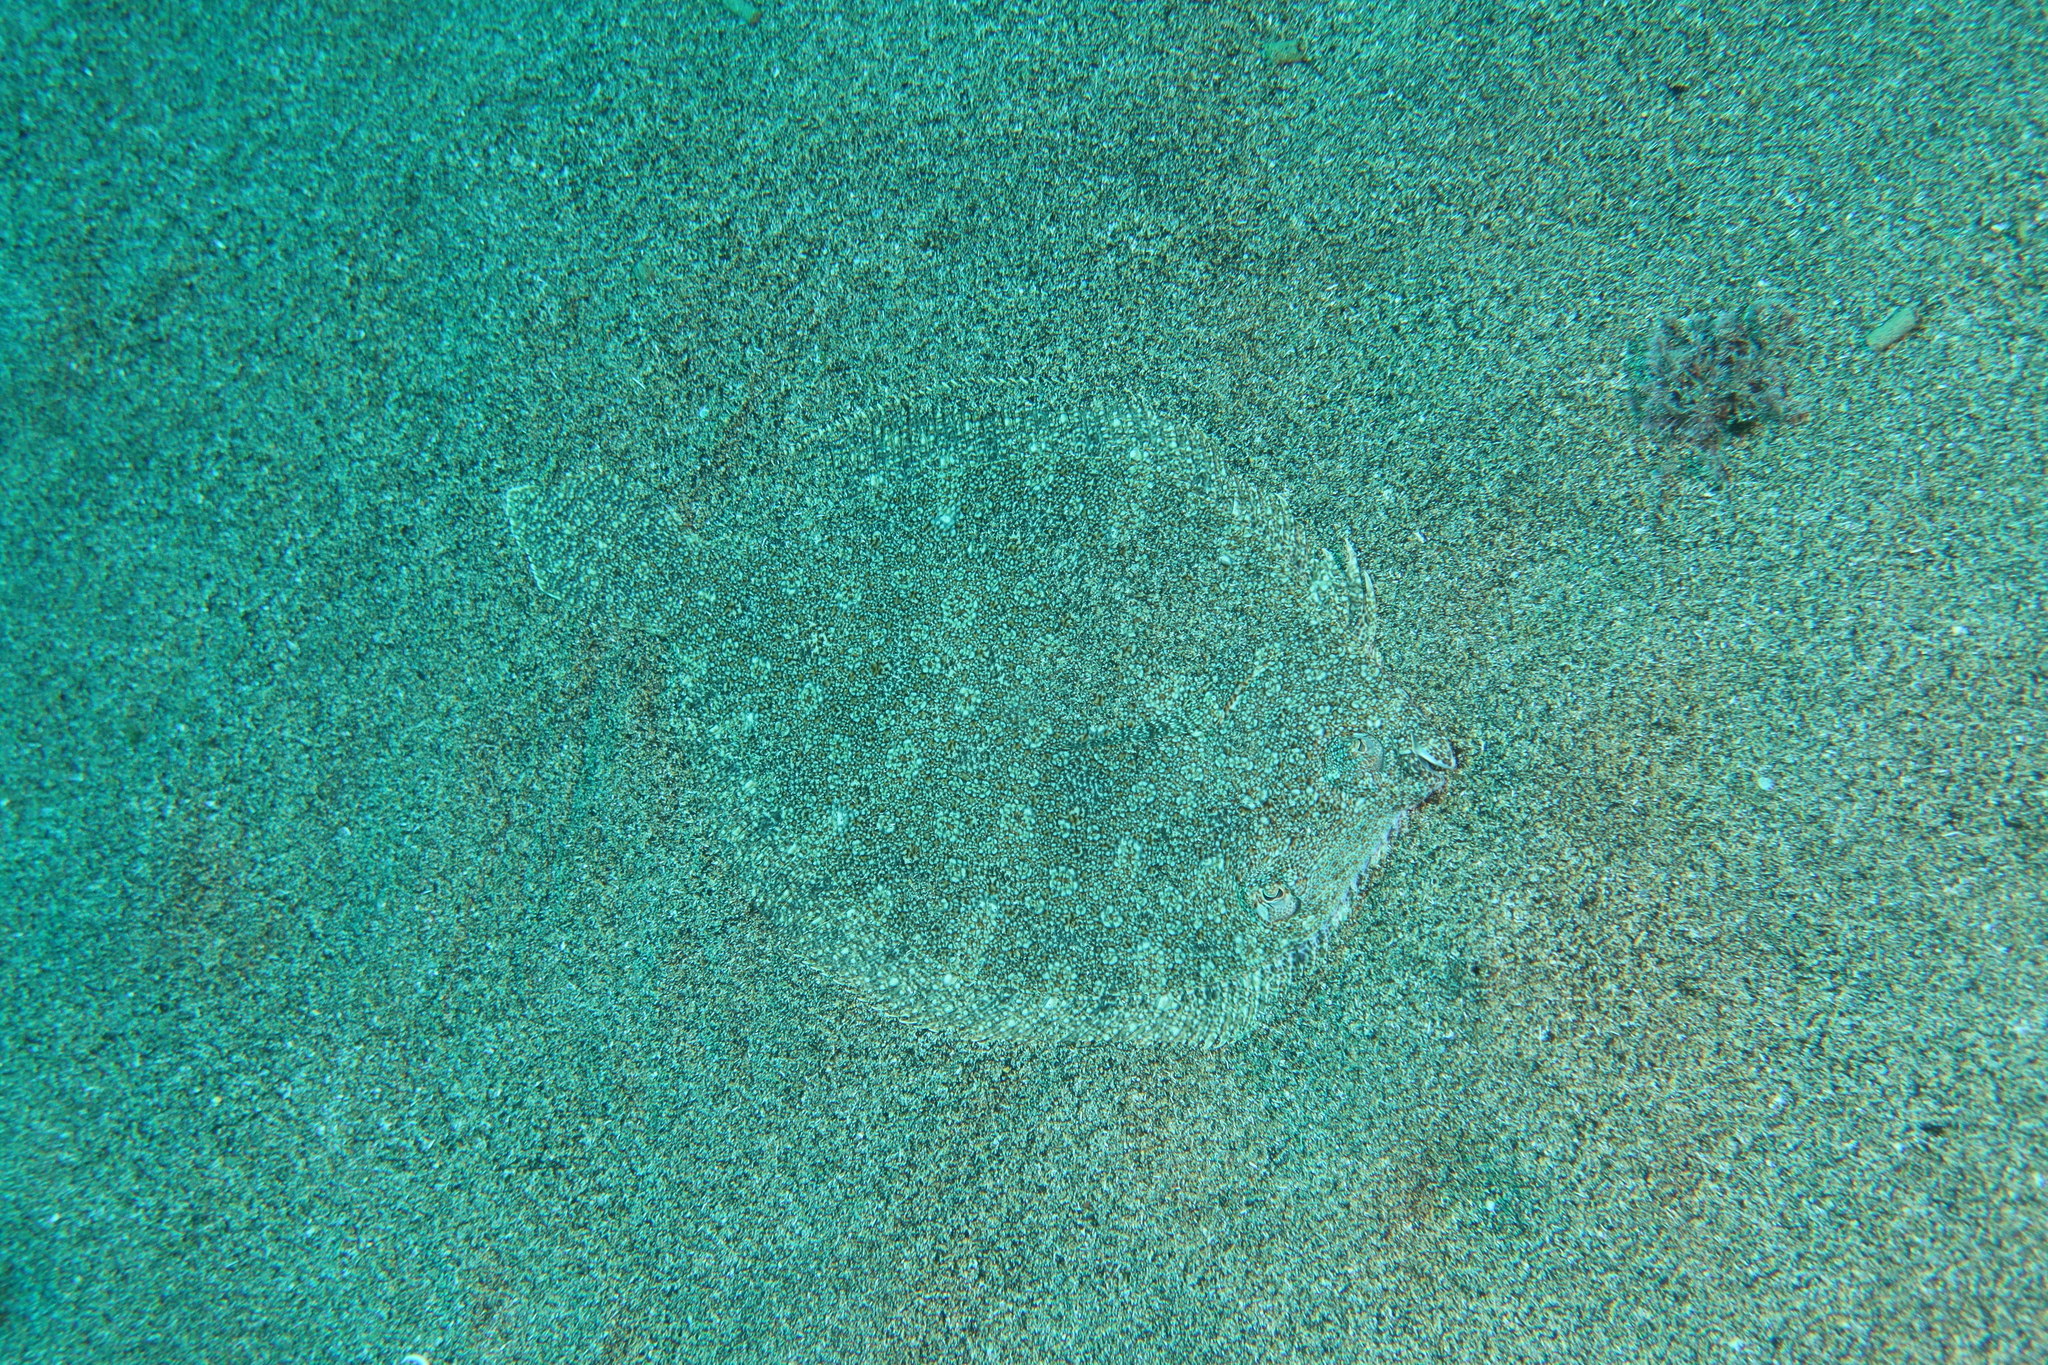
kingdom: Animalia
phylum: Chordata
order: Pleuronectiformes
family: Bothidae
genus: Bothus
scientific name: Bothus podas
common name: Wide-eyed flounder
